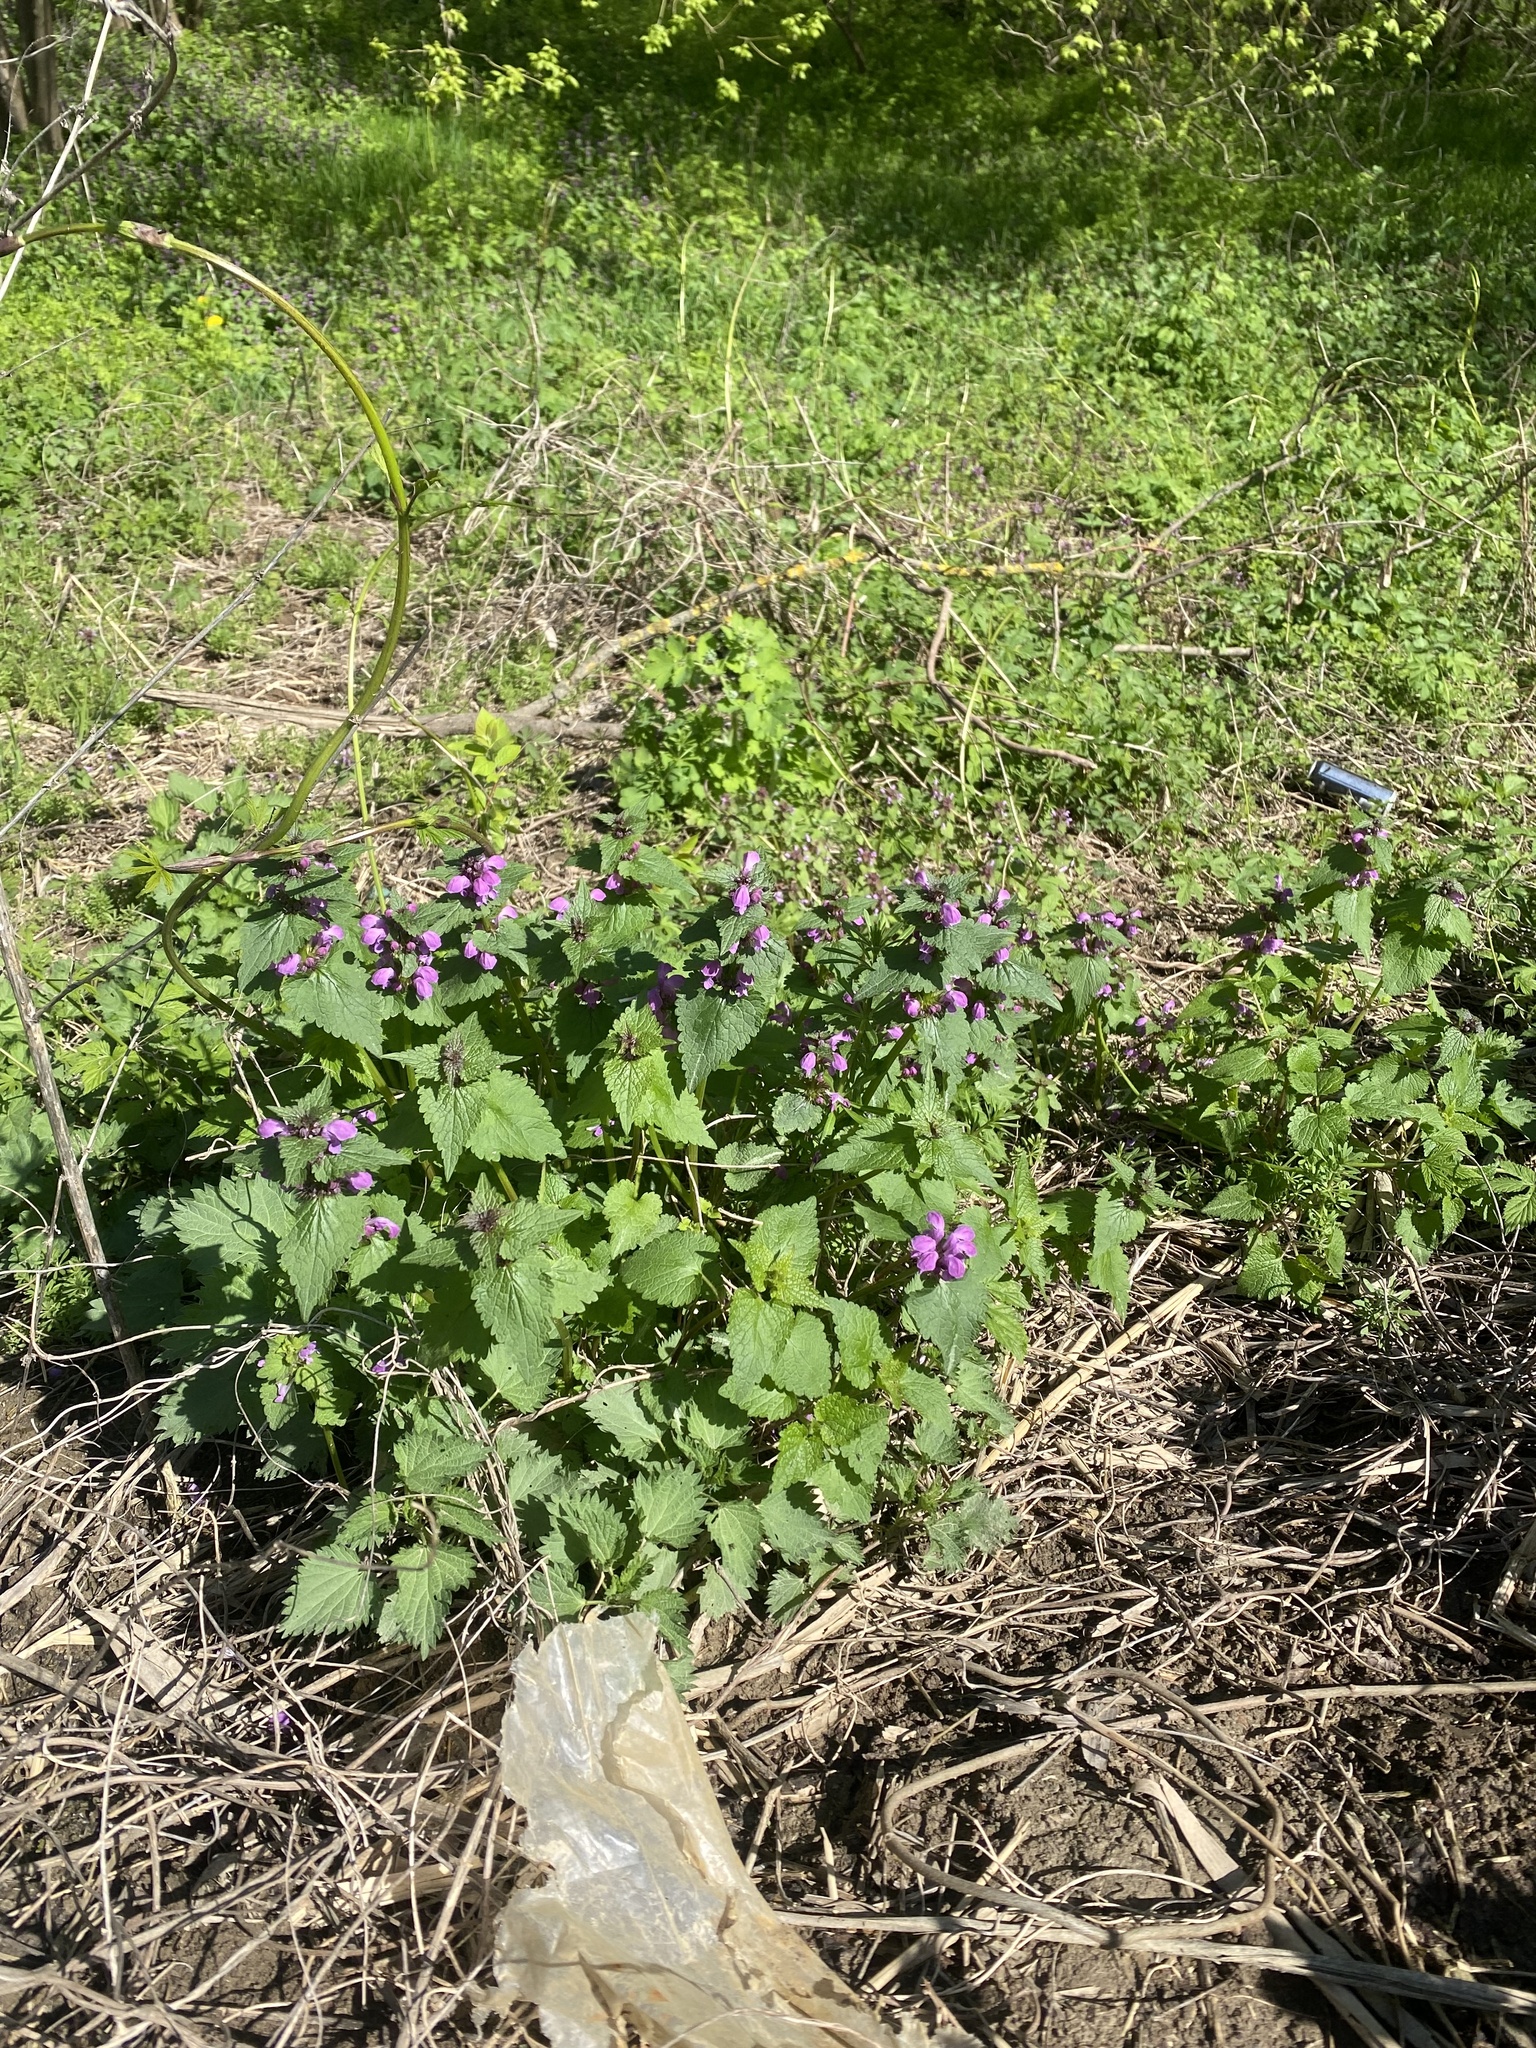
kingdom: Plantae
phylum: Tracheophyta
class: Magnoliopsida
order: Lamiales
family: Lamiaceae
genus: Lamium
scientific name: Lamium maculatum
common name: Spotted dead-nettle
